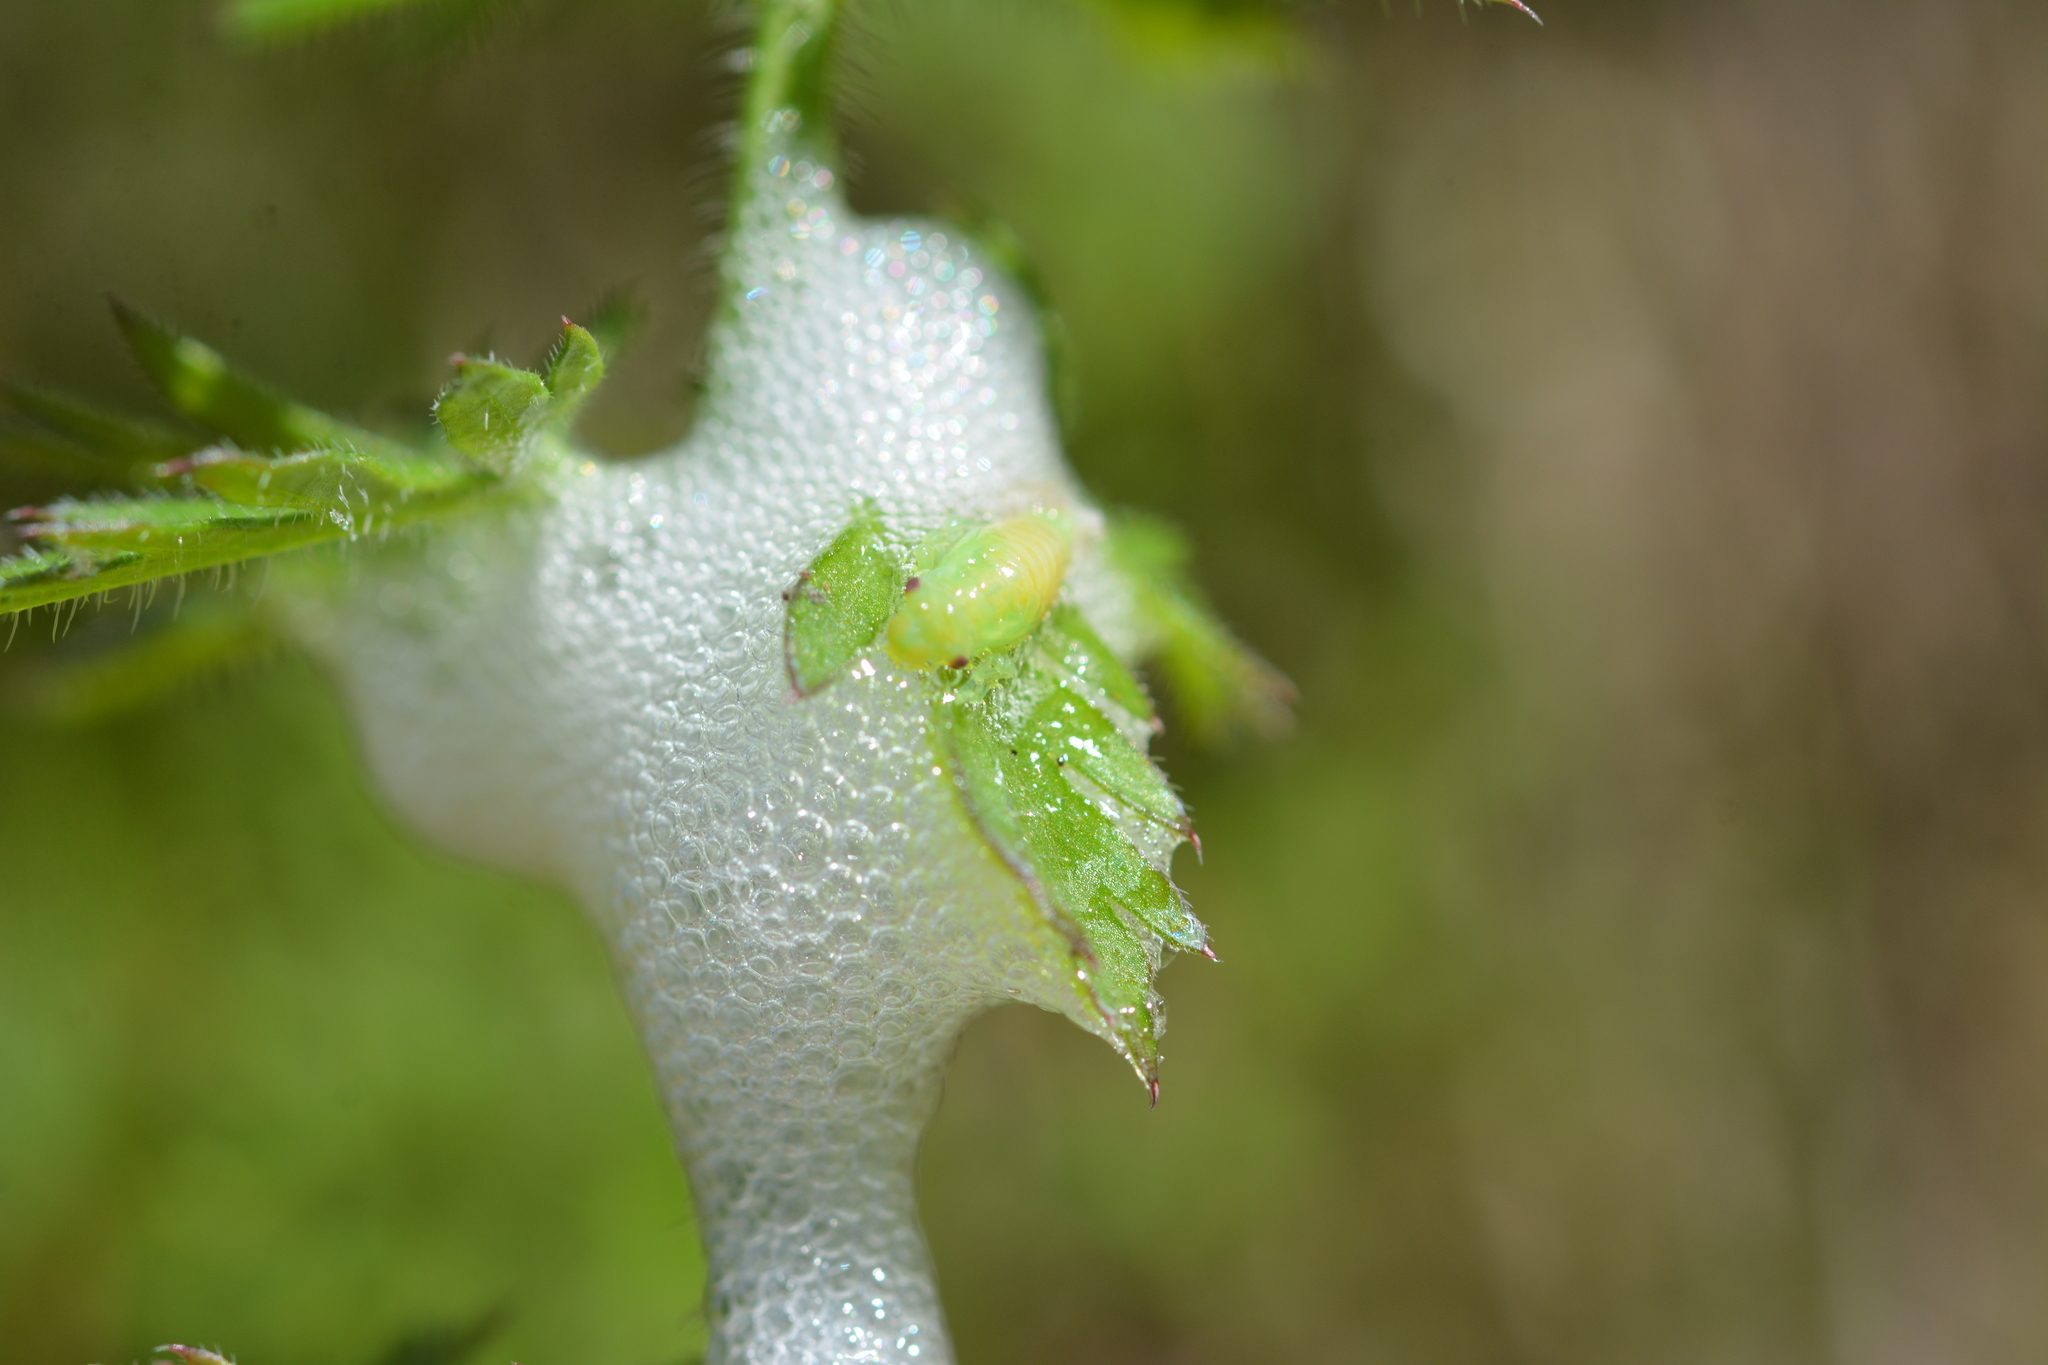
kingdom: Animalia
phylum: Arthropoda
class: Insecta
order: Hemiptera
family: Aphrophoridae
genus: Philaenus
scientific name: Philaenus spumarius
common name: Meadow spittlebug
